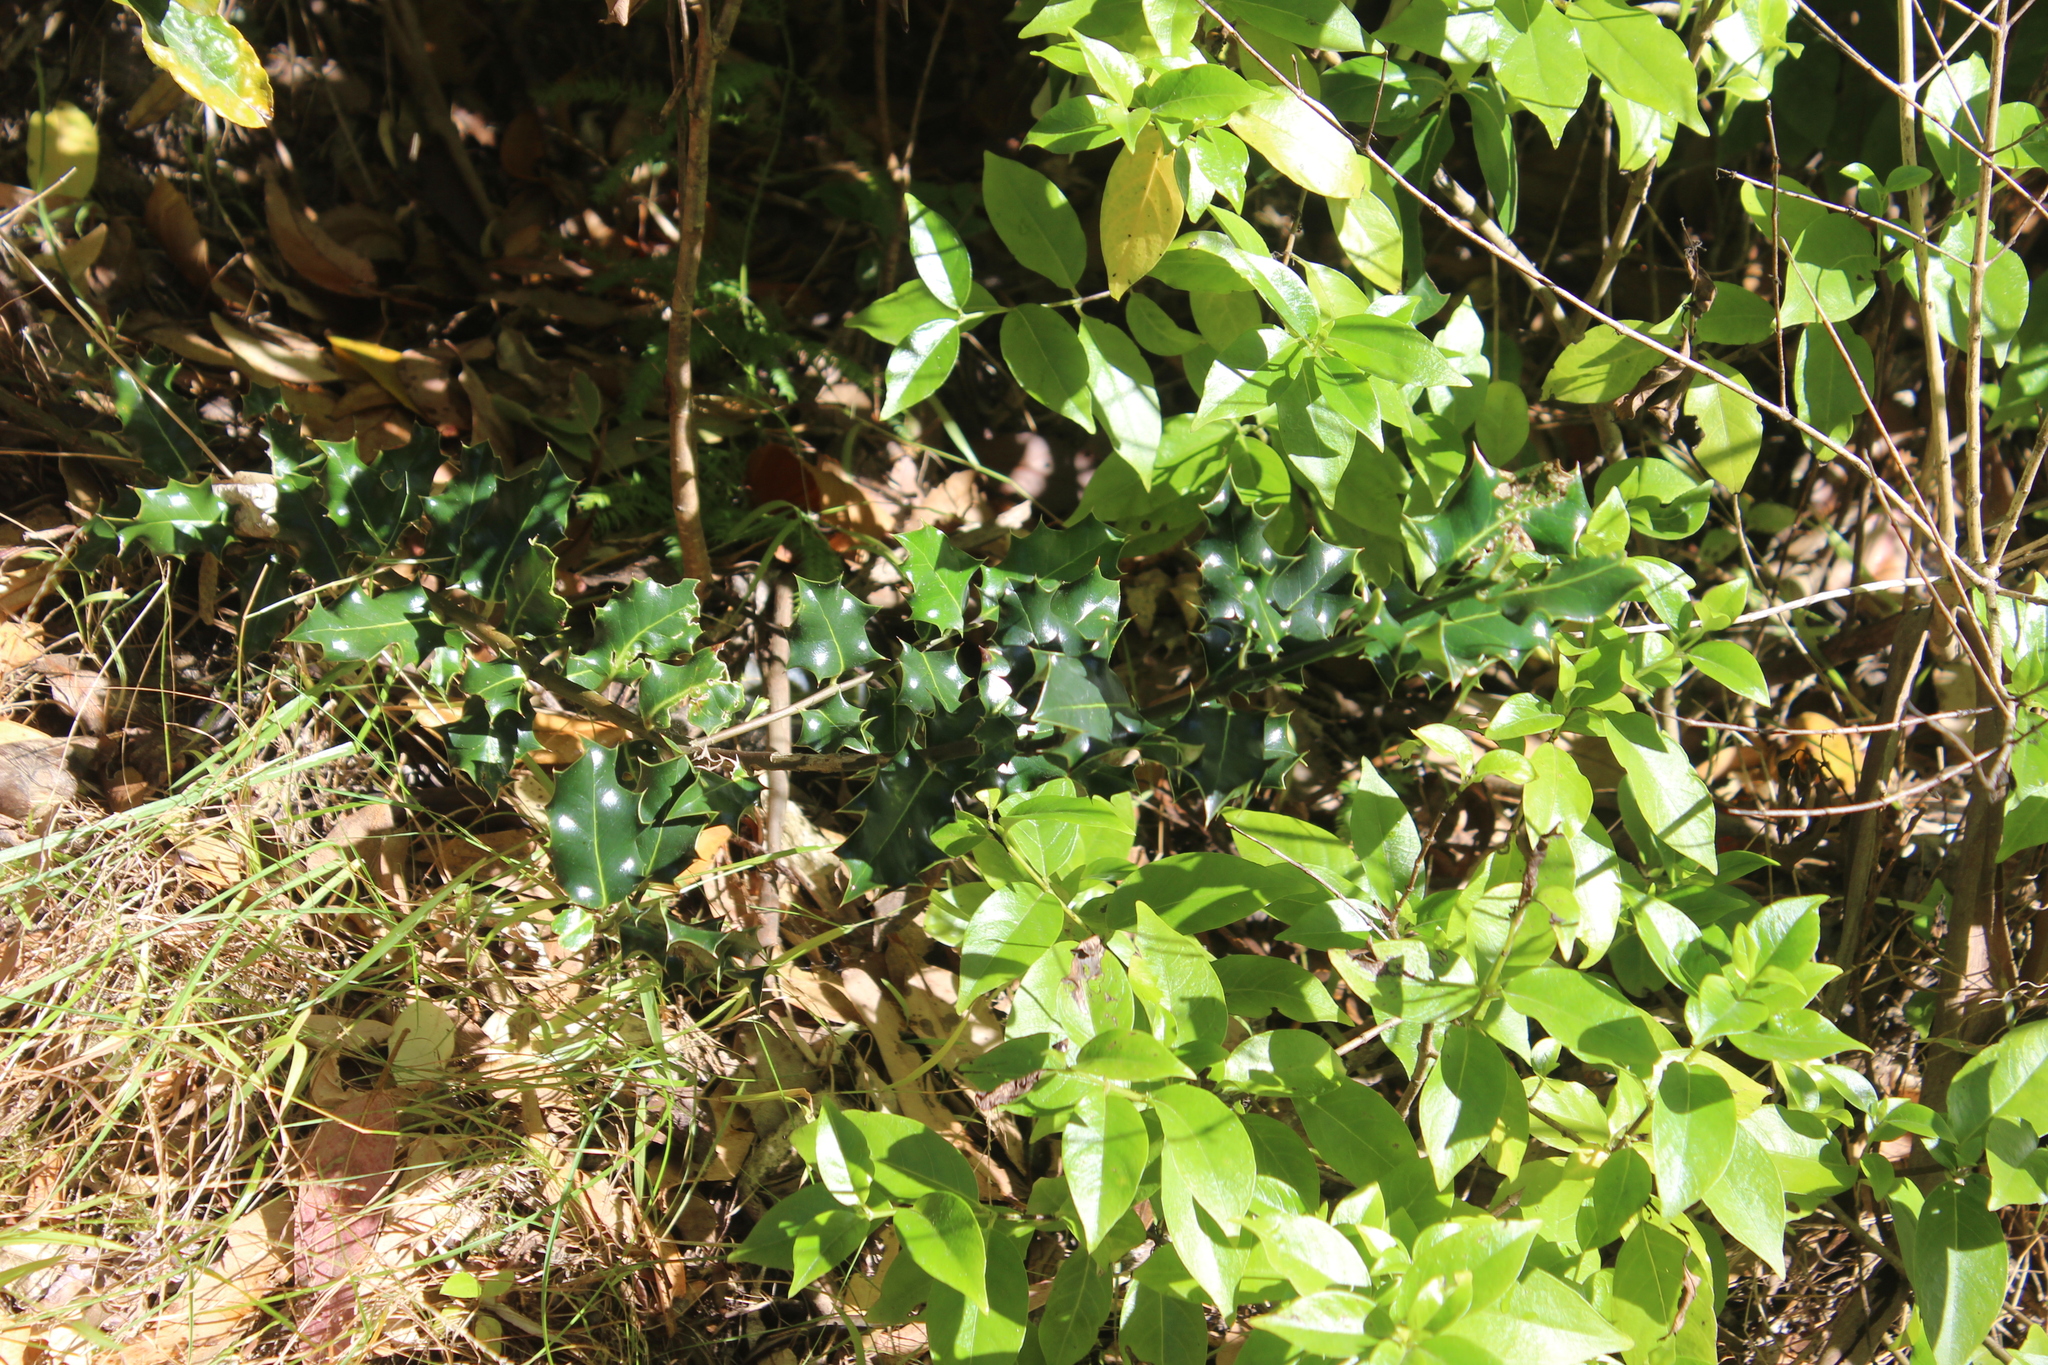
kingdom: Plantae
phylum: Tracheophyta
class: Magnoliopsida
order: Aquifoliales
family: Aquifoliaceae
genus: Ilex
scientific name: Ilex aquifolium
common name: English holly
